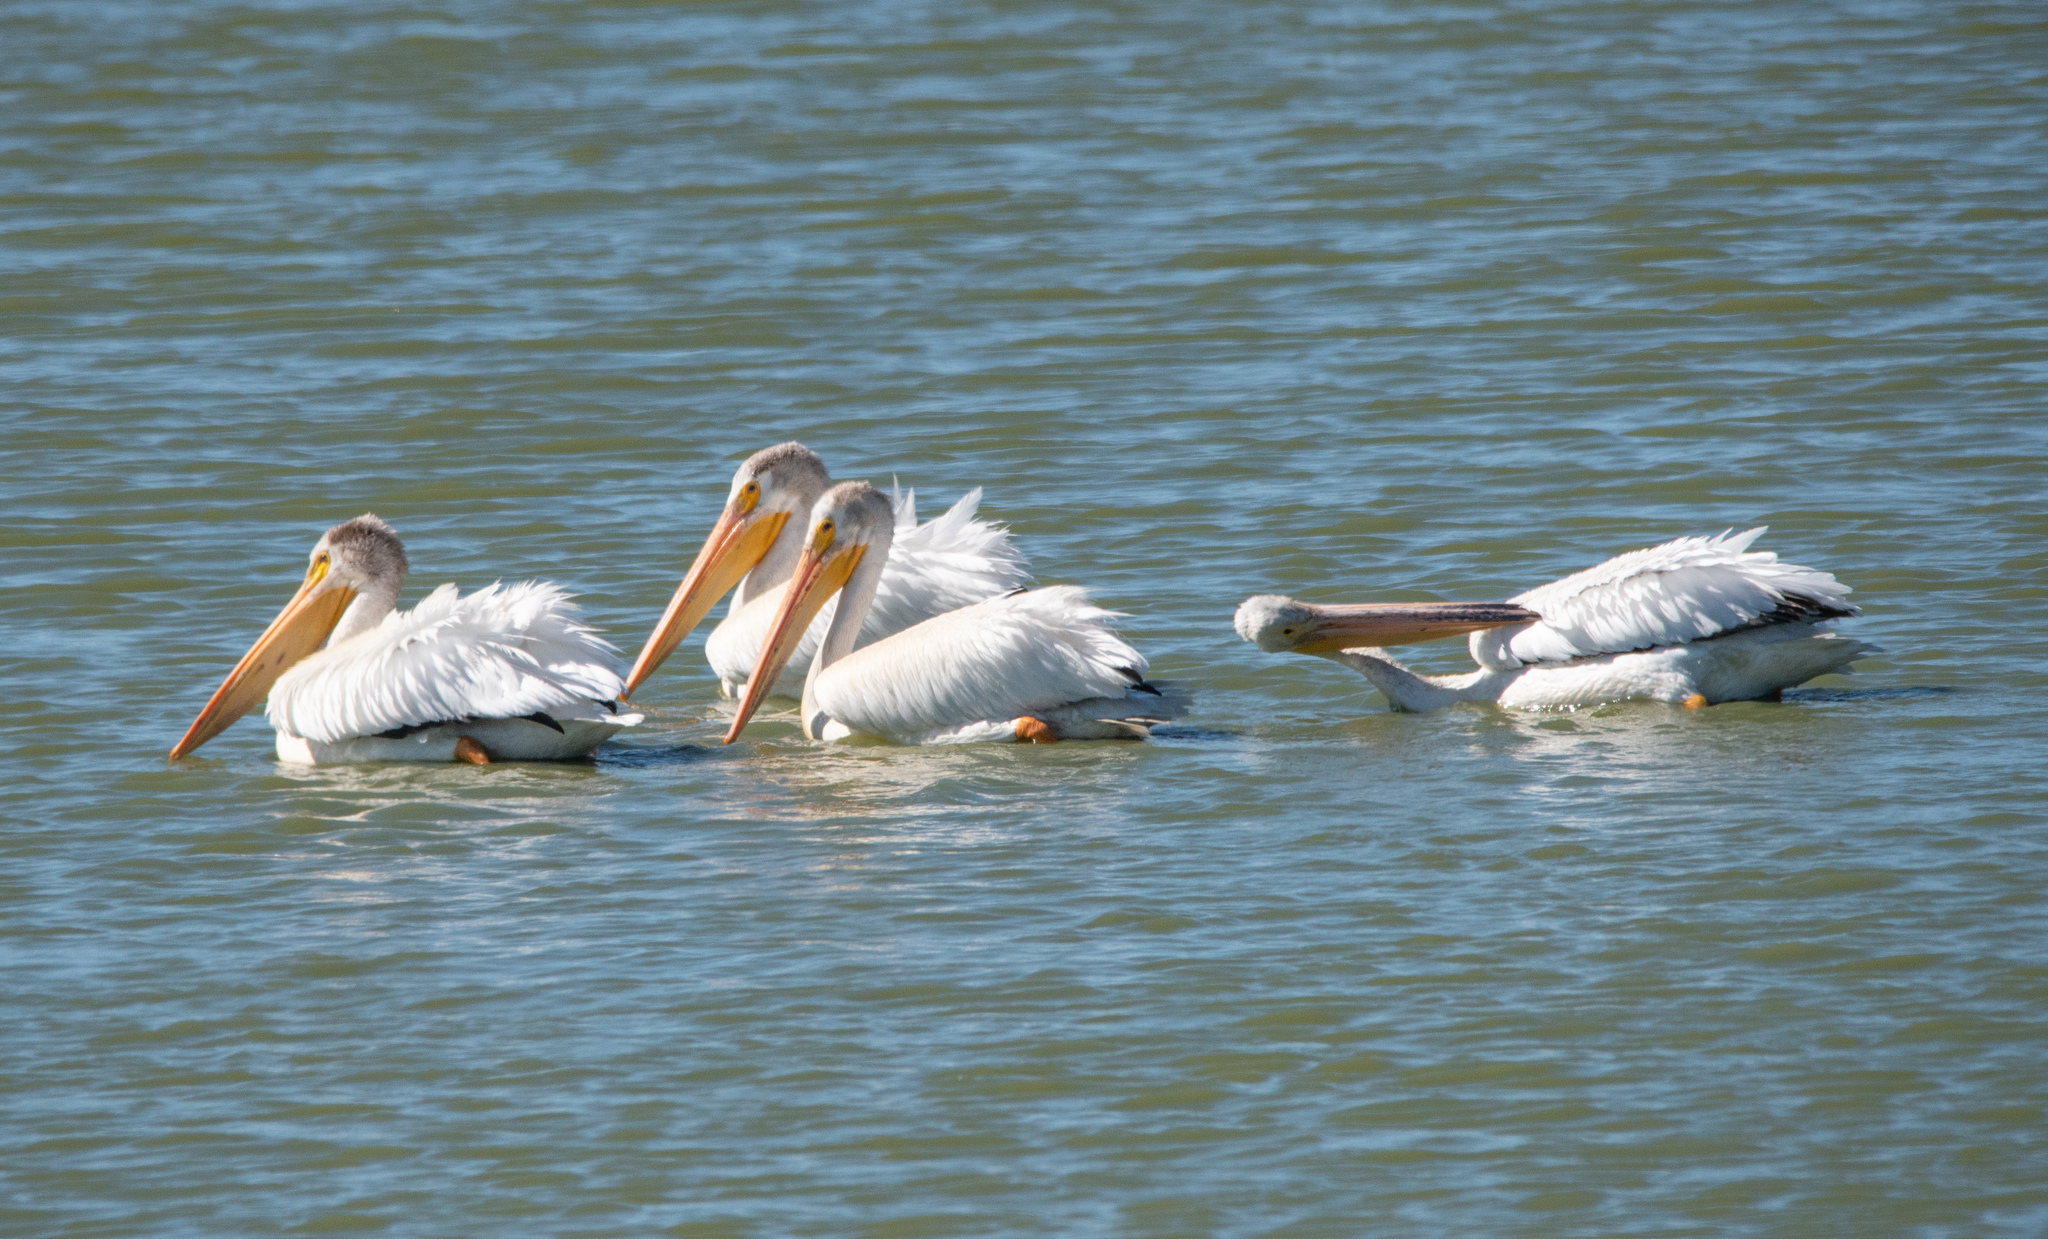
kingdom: Animalia
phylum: Chordata
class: Aves
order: Pelecaniformes
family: Pelecanidae
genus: Pelecanus
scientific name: Pelecanus erythrorhynchos
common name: American white pelican
